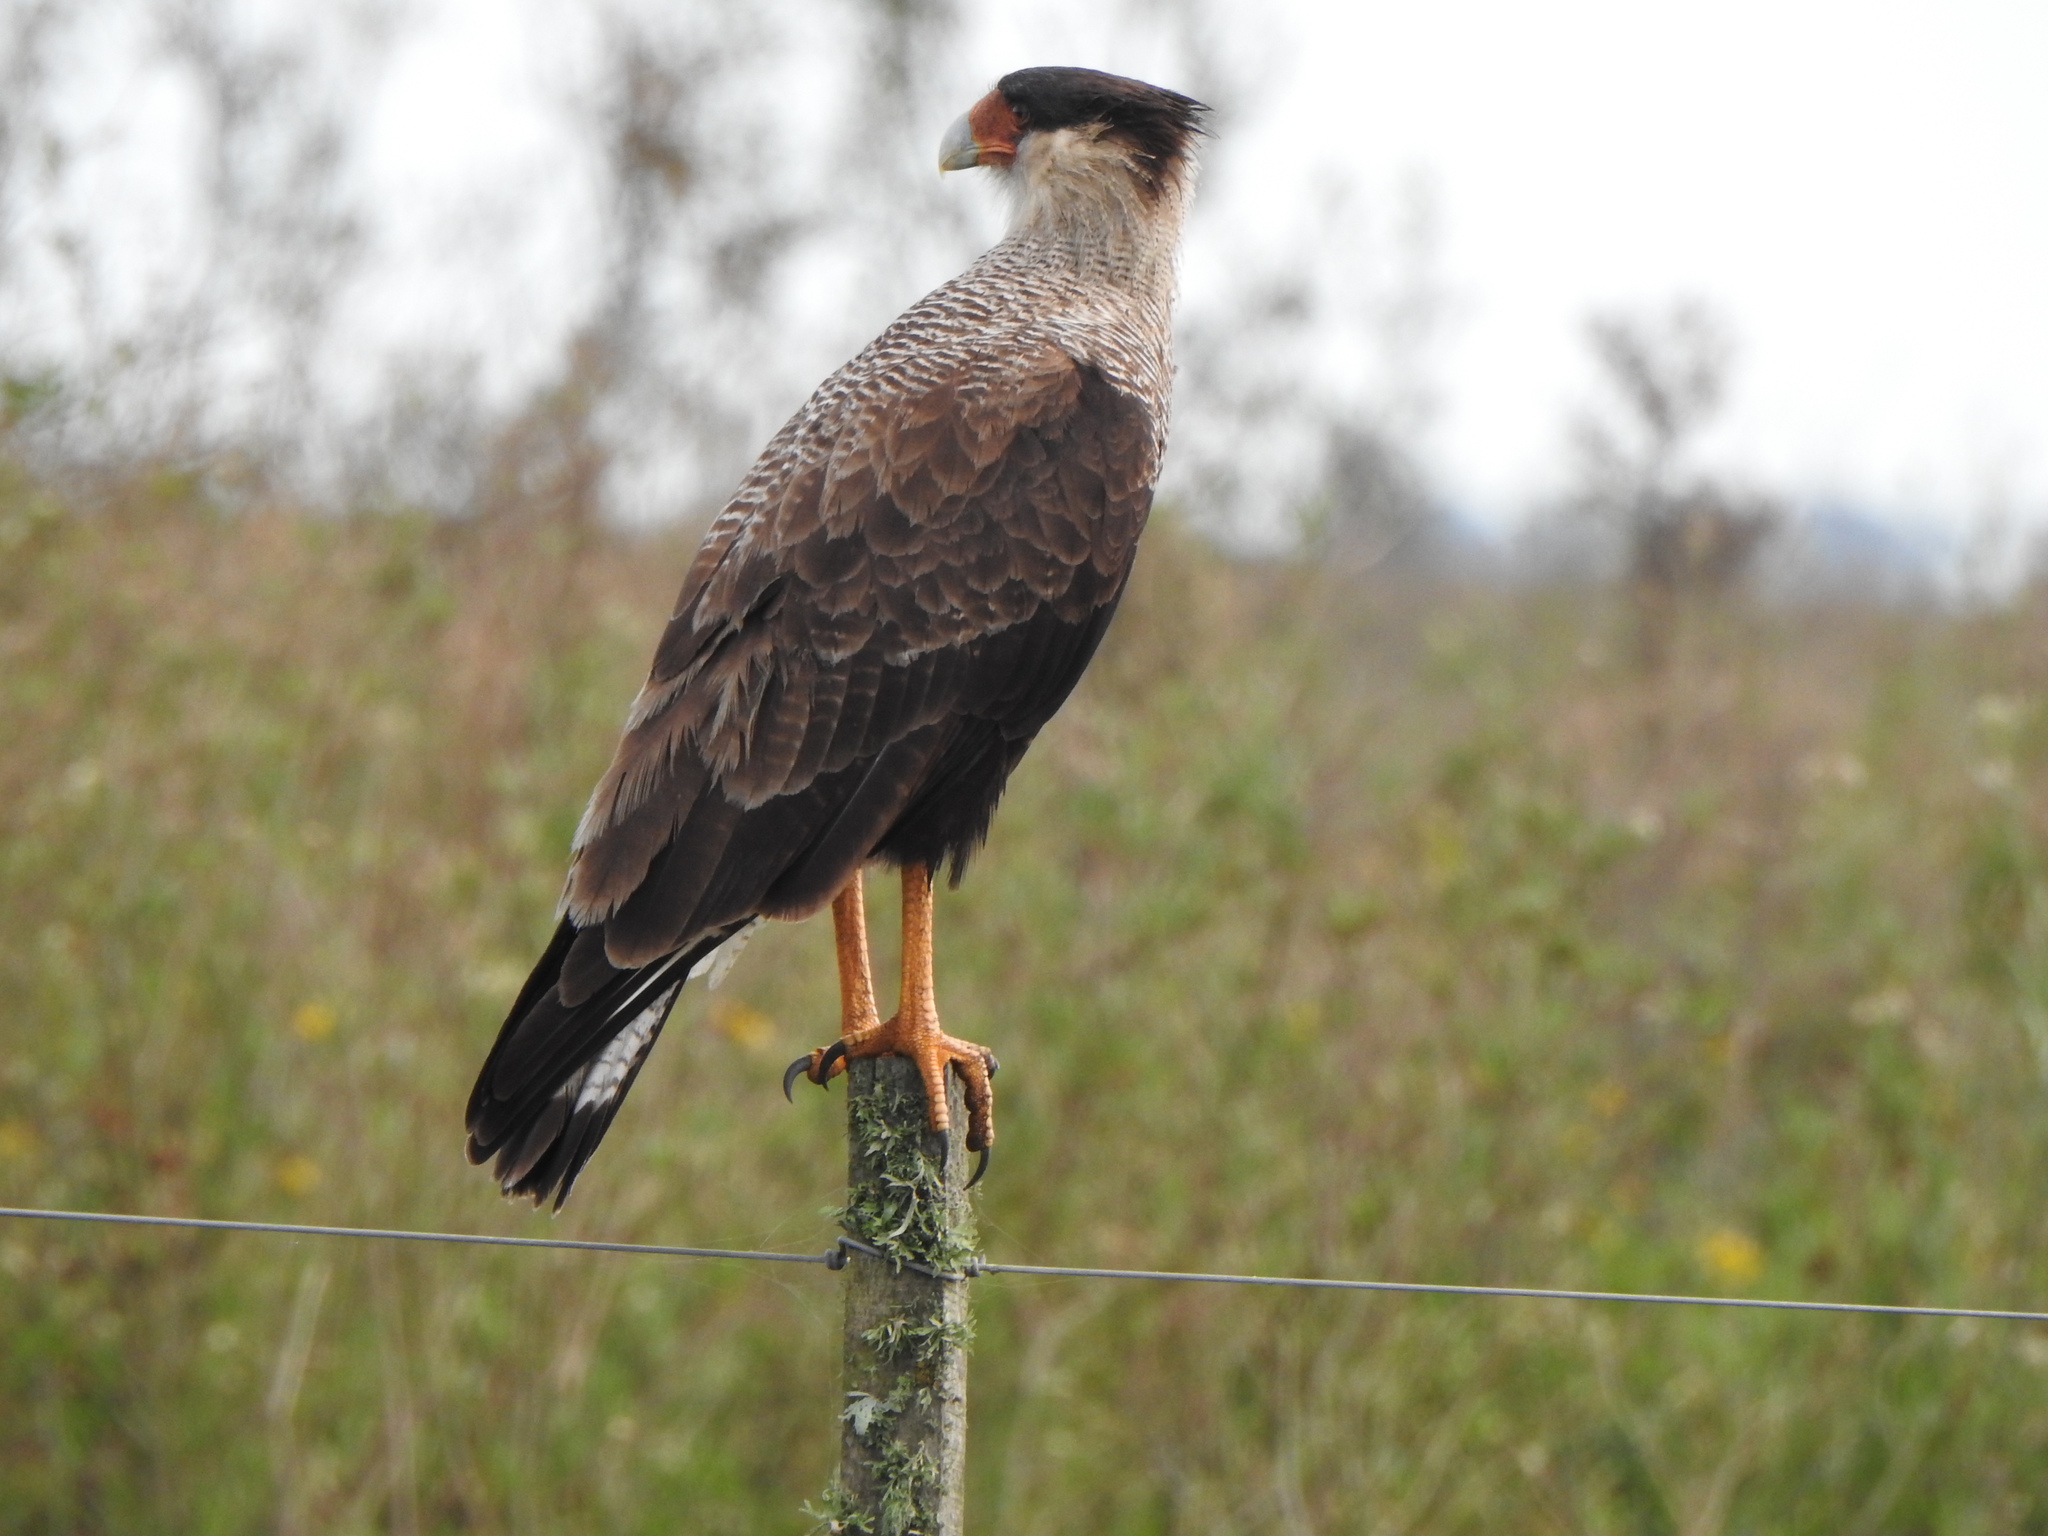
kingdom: Animalia
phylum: Chordata
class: Aves
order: Falconiformes
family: Falconidae
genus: Caracara
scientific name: Caracara plancus
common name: Southern caracara
